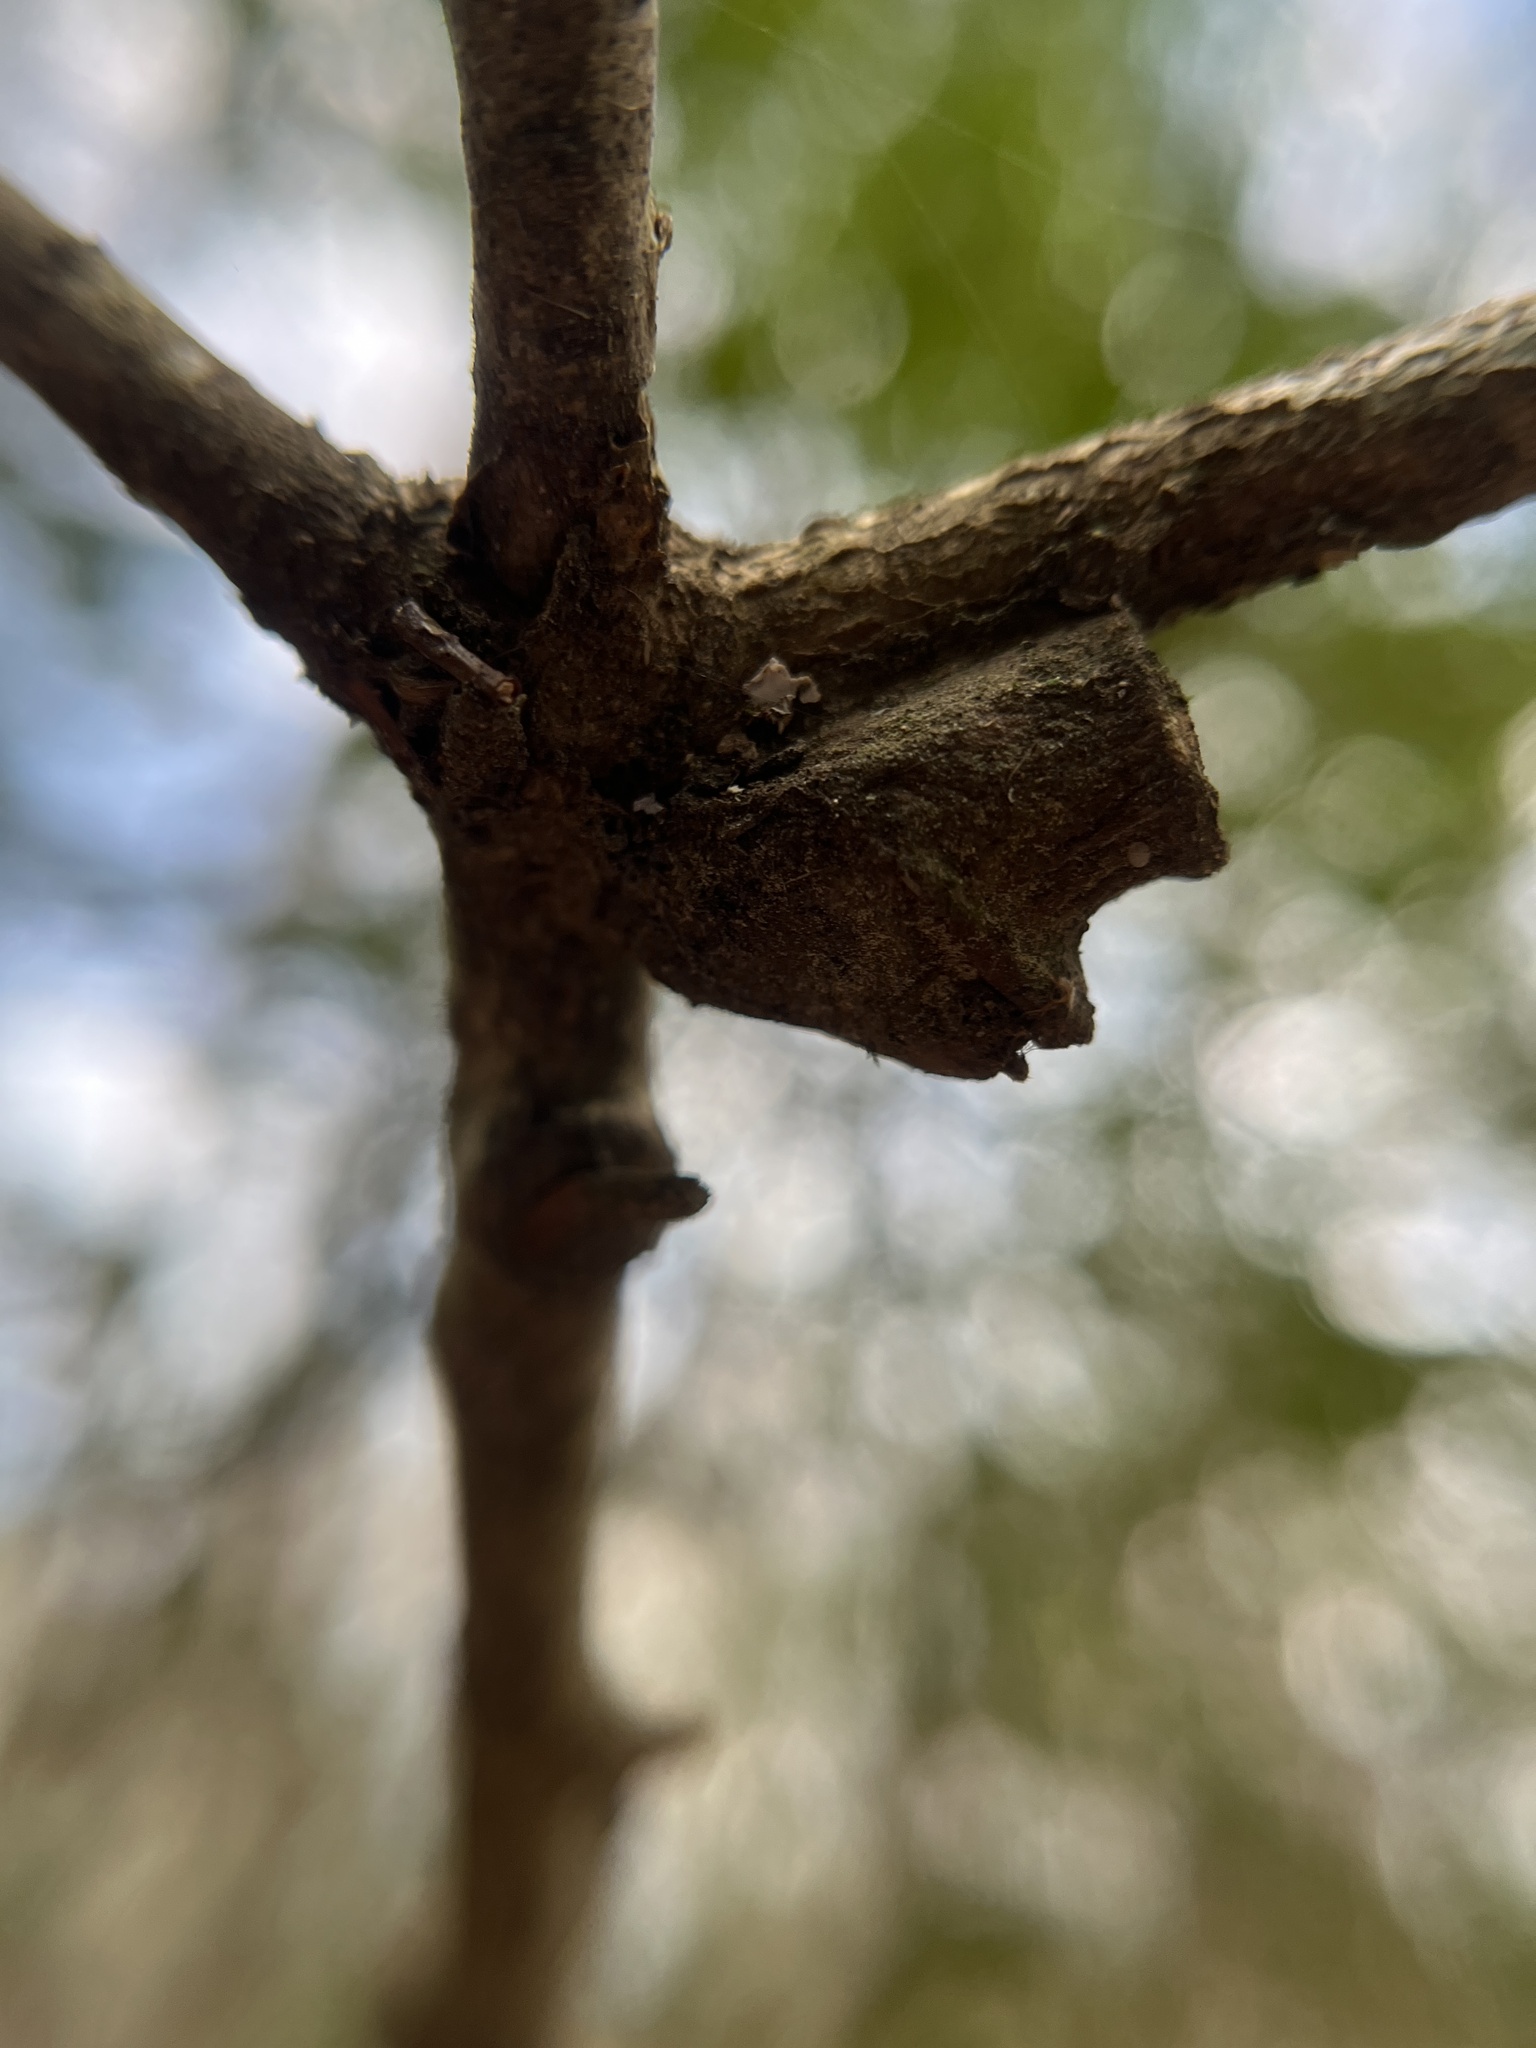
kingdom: Animalia
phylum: Arthropoda
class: Insecta
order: Lepidoptera
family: Megalopygidae
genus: Megalopyge
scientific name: Megalopyge
